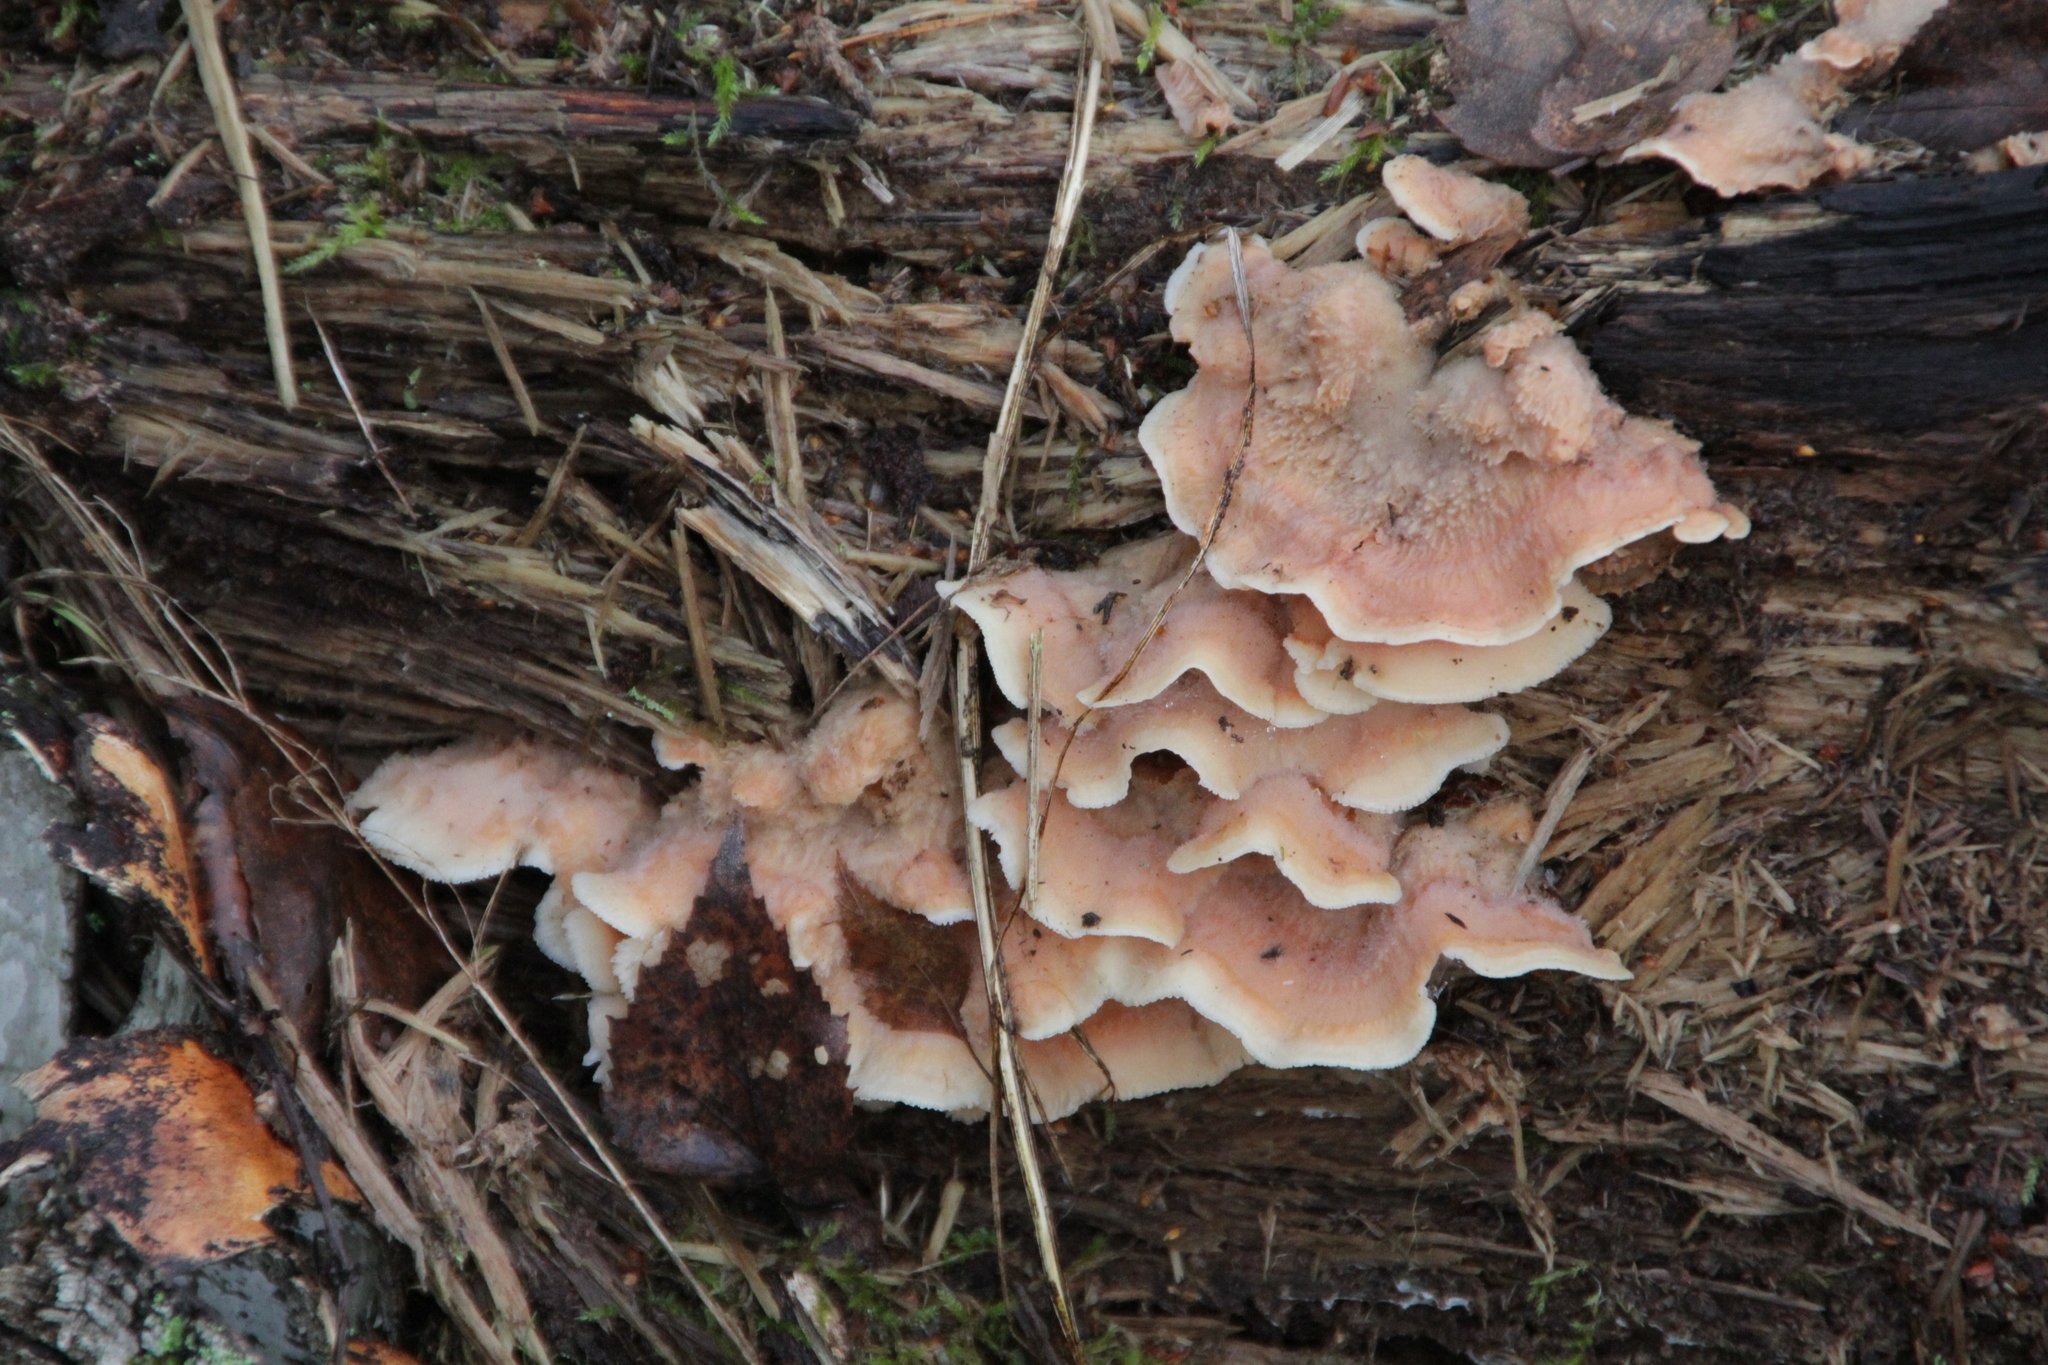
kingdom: Fungi
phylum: Basidiomycota
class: Agaricomycetes
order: Polyporales
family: Meruliaceae
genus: Phlebia
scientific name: Phlebia tremellosa
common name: Jelly rot
